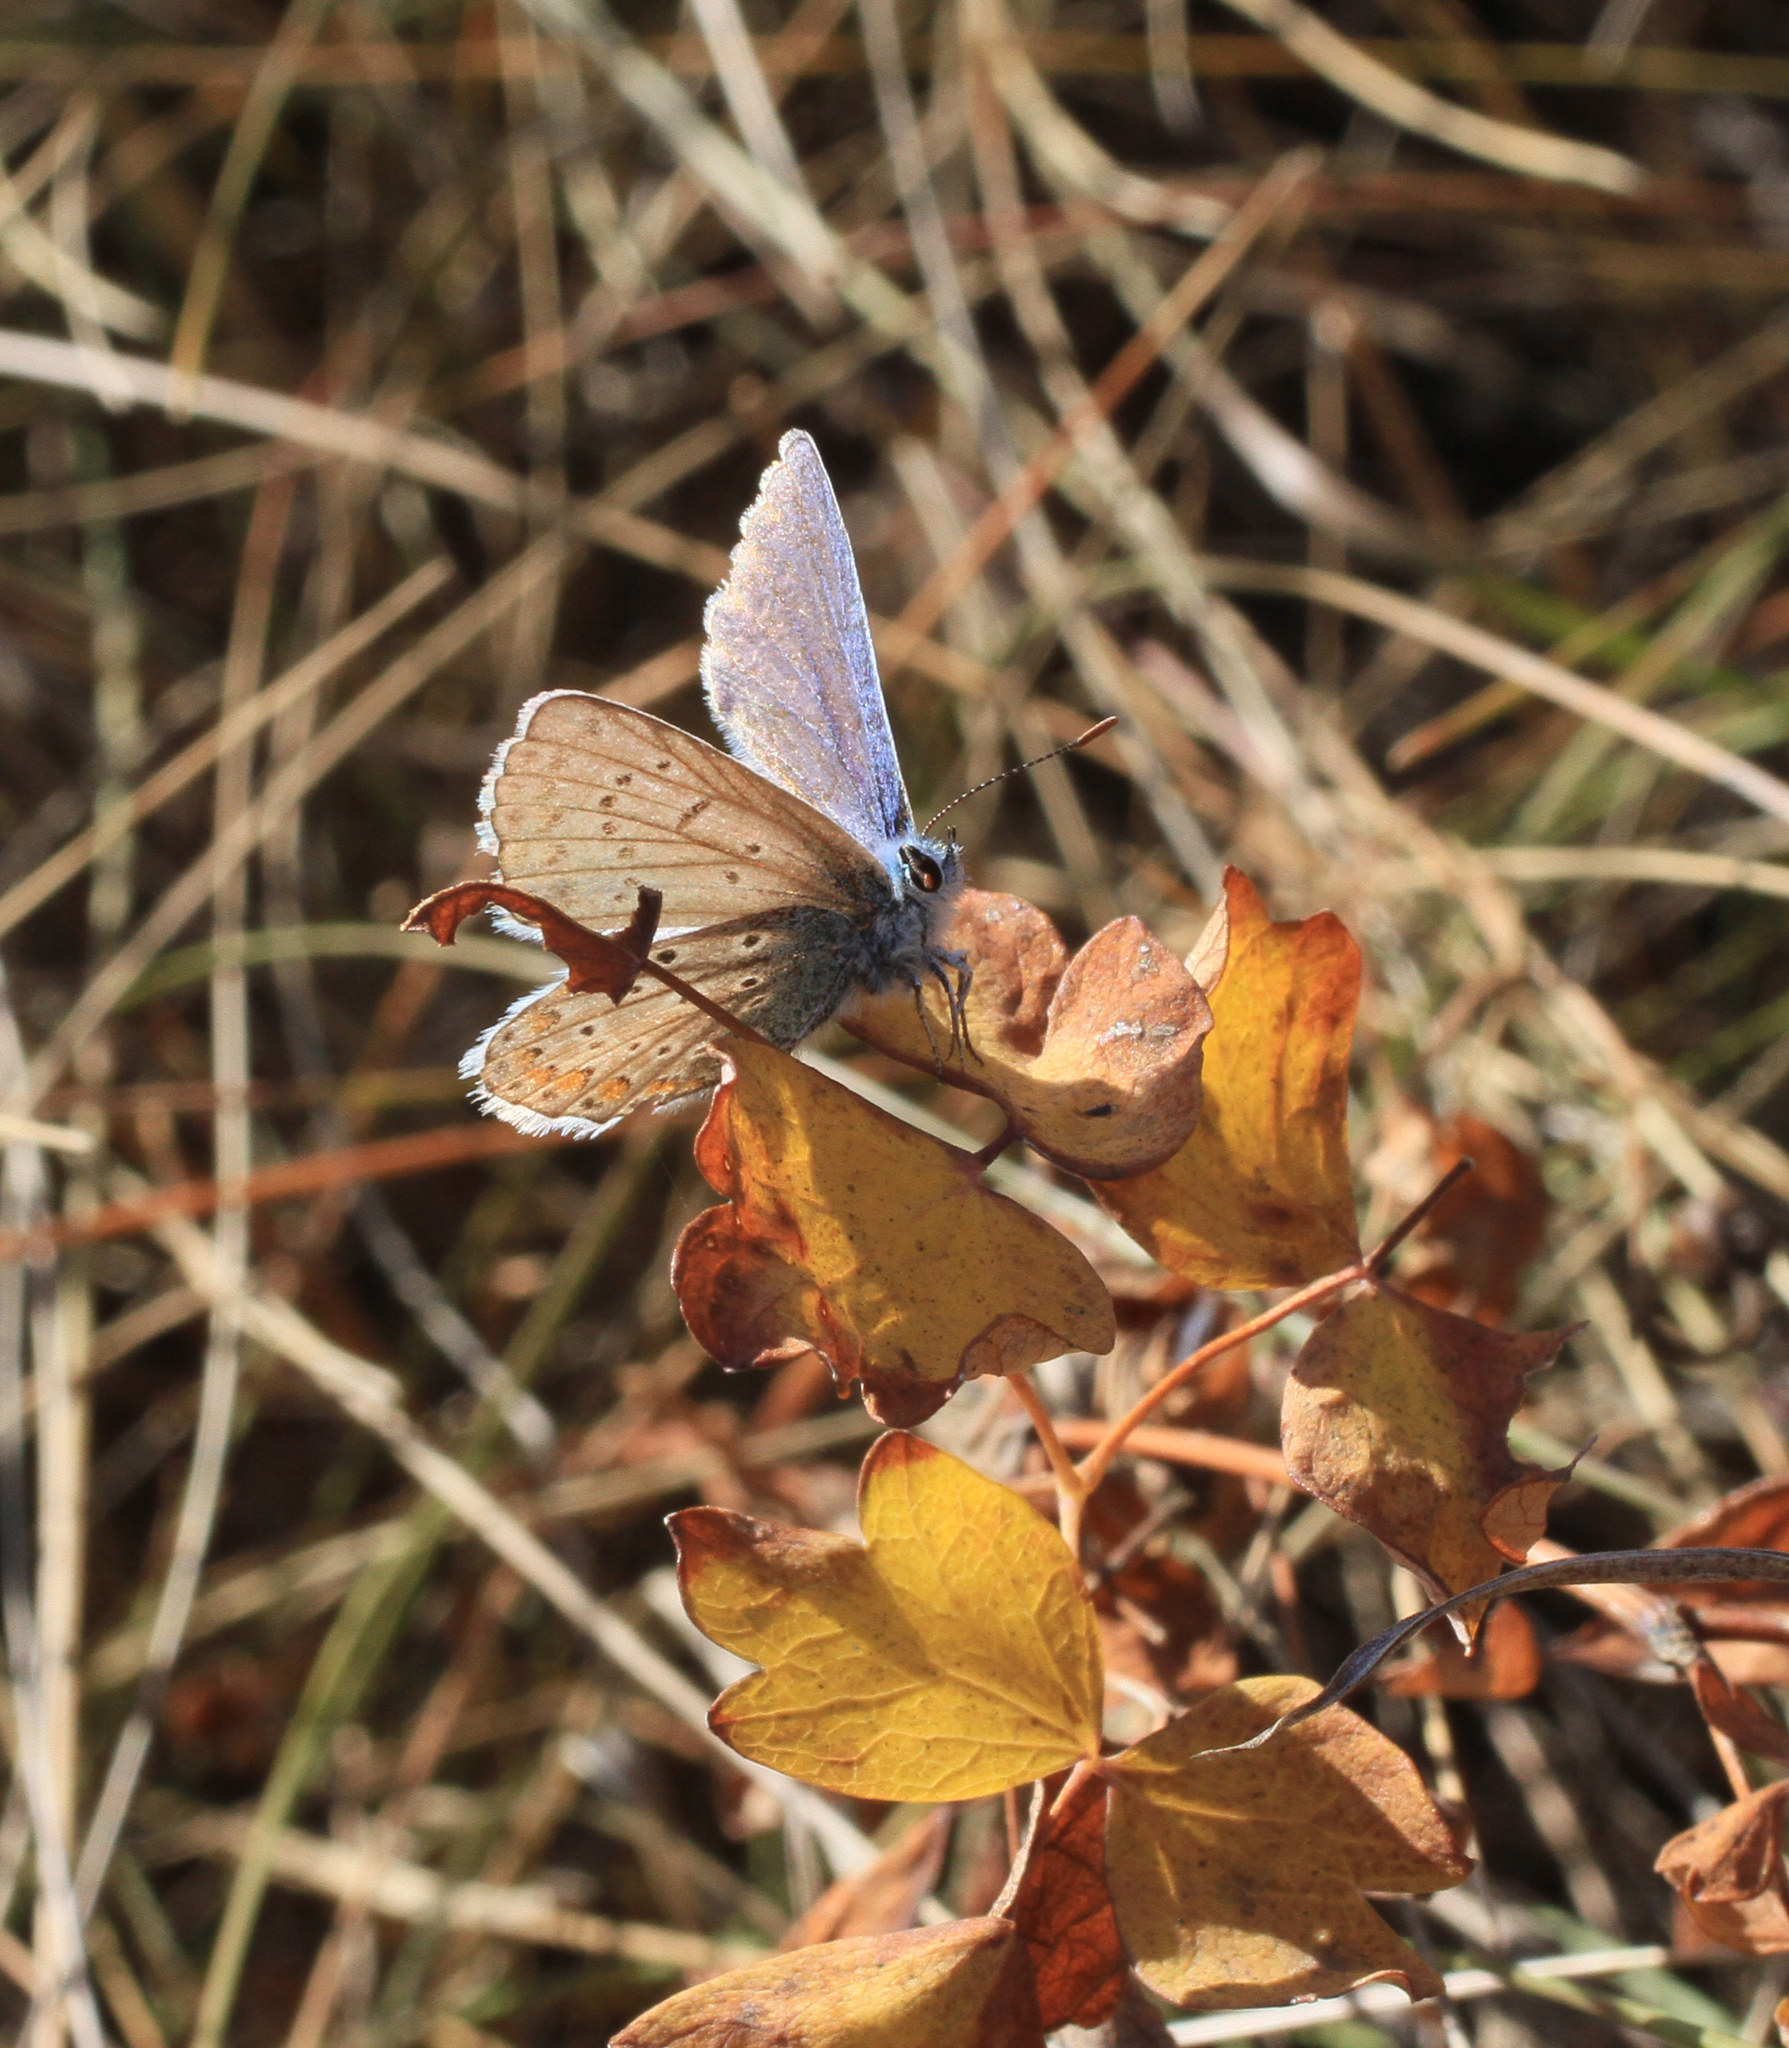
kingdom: Animalia
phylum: Arthropoda
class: Insecta
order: Lepidoptera
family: Lycaenidae
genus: Polyommatus
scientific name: Polyommatus icarus
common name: Common blue
